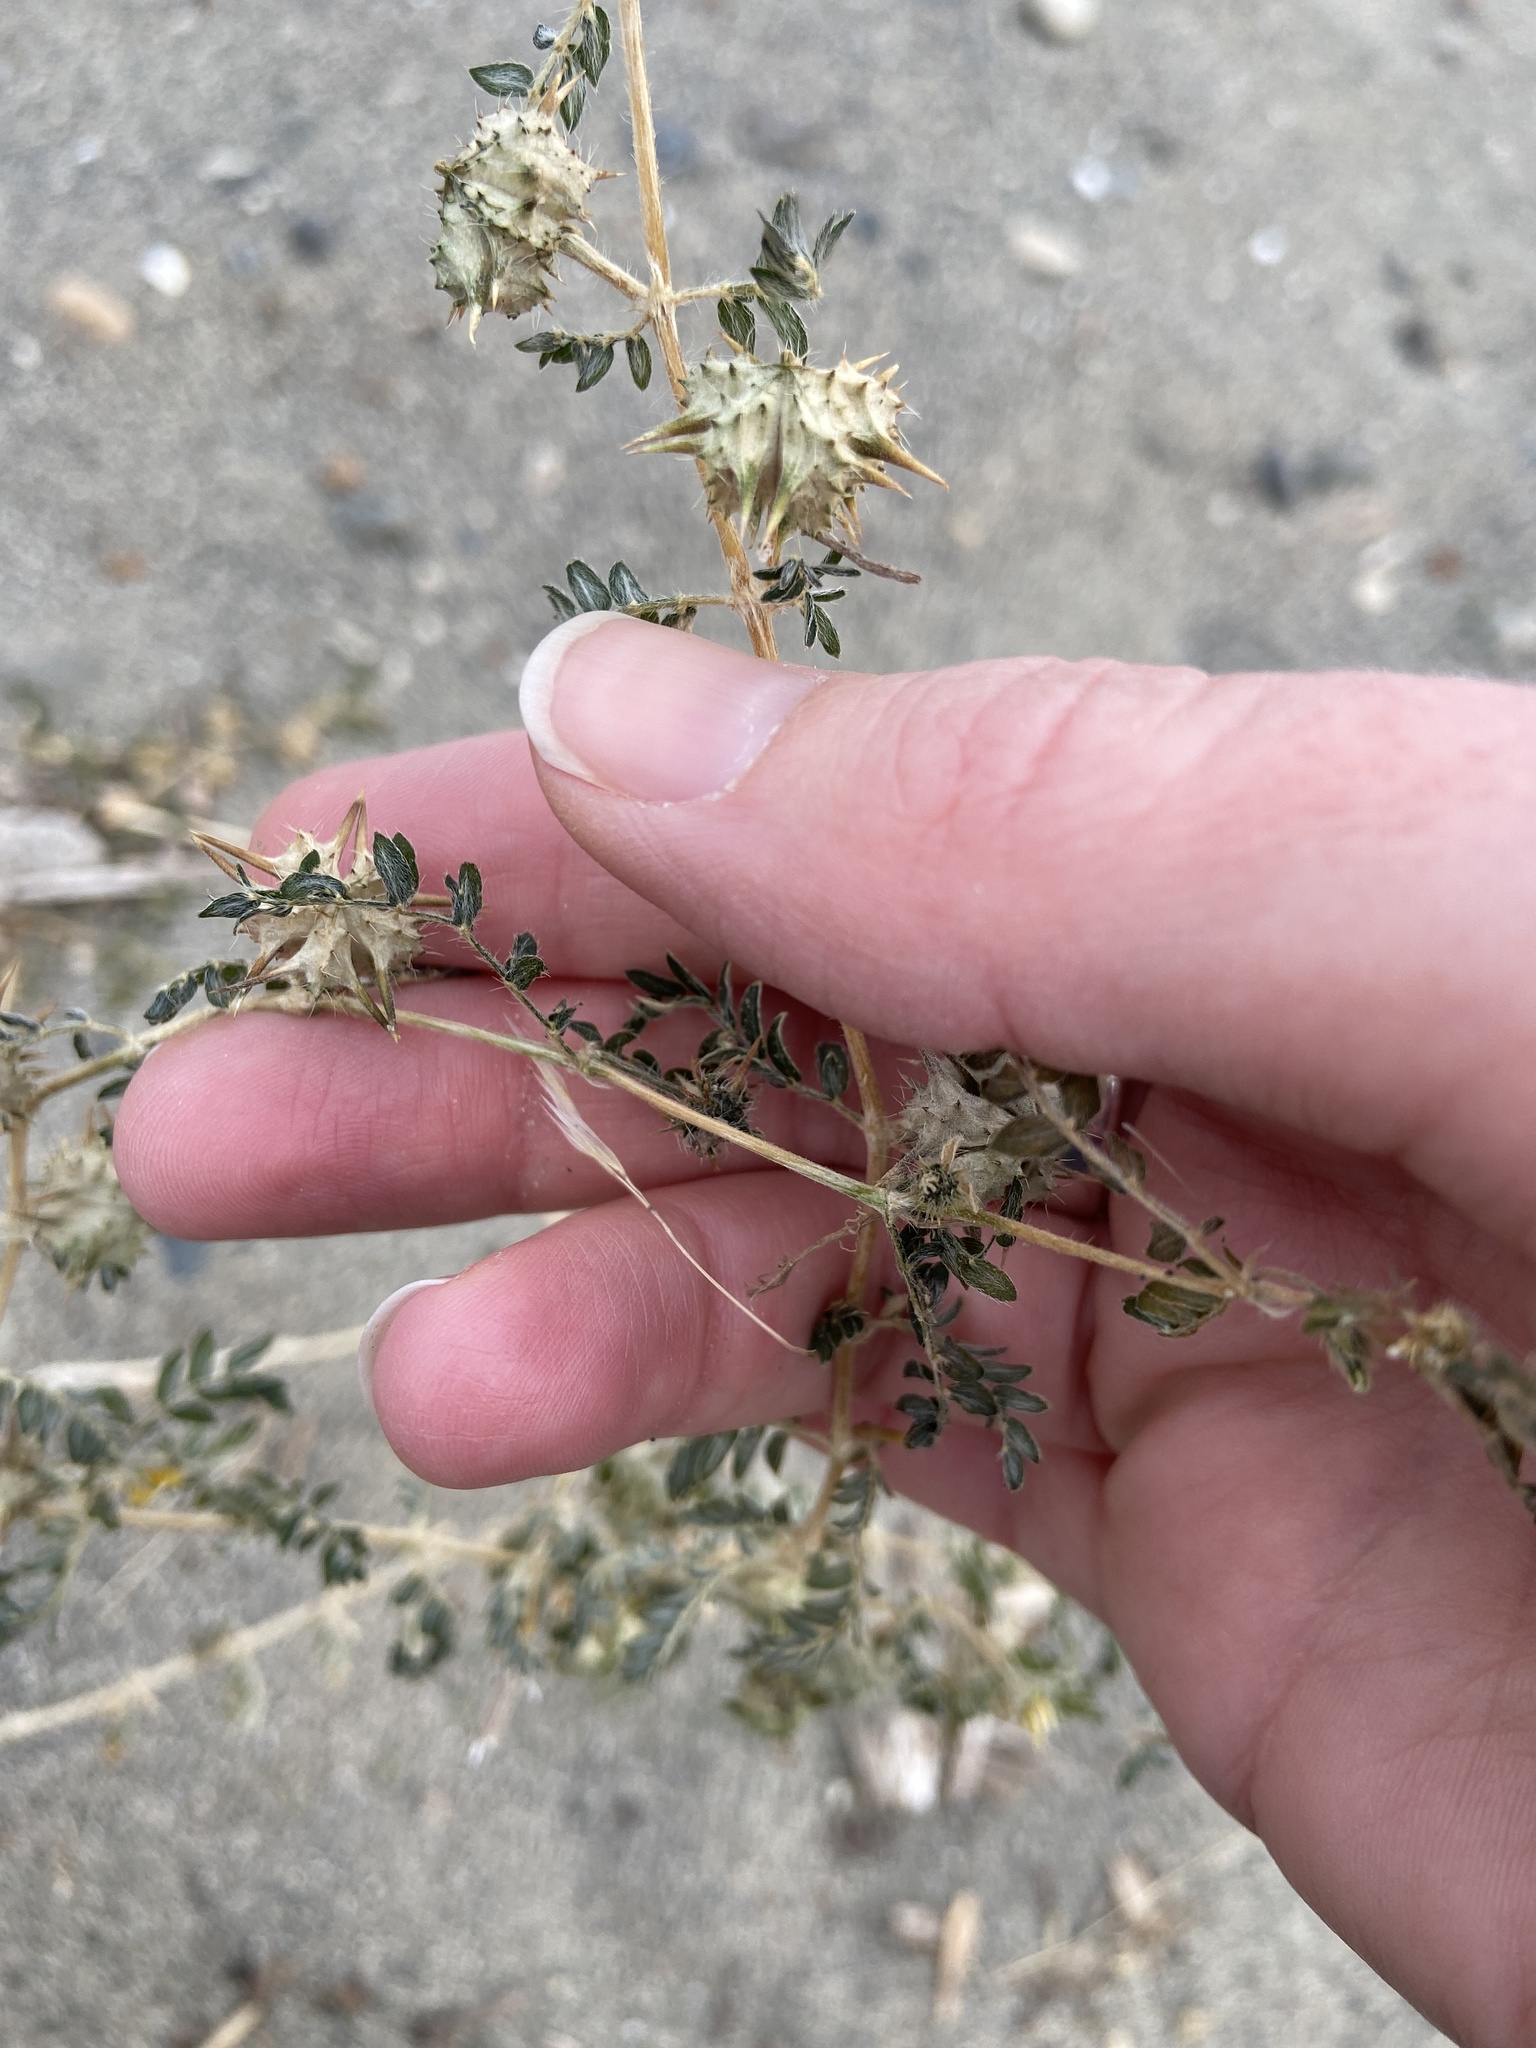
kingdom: Plantae
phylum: Tracheophyta
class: Magnoliopsida
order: Zygophyllales
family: Zygophyllaceae
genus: Tribulus
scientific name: Tribulus terrestris
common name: Puncturevine
